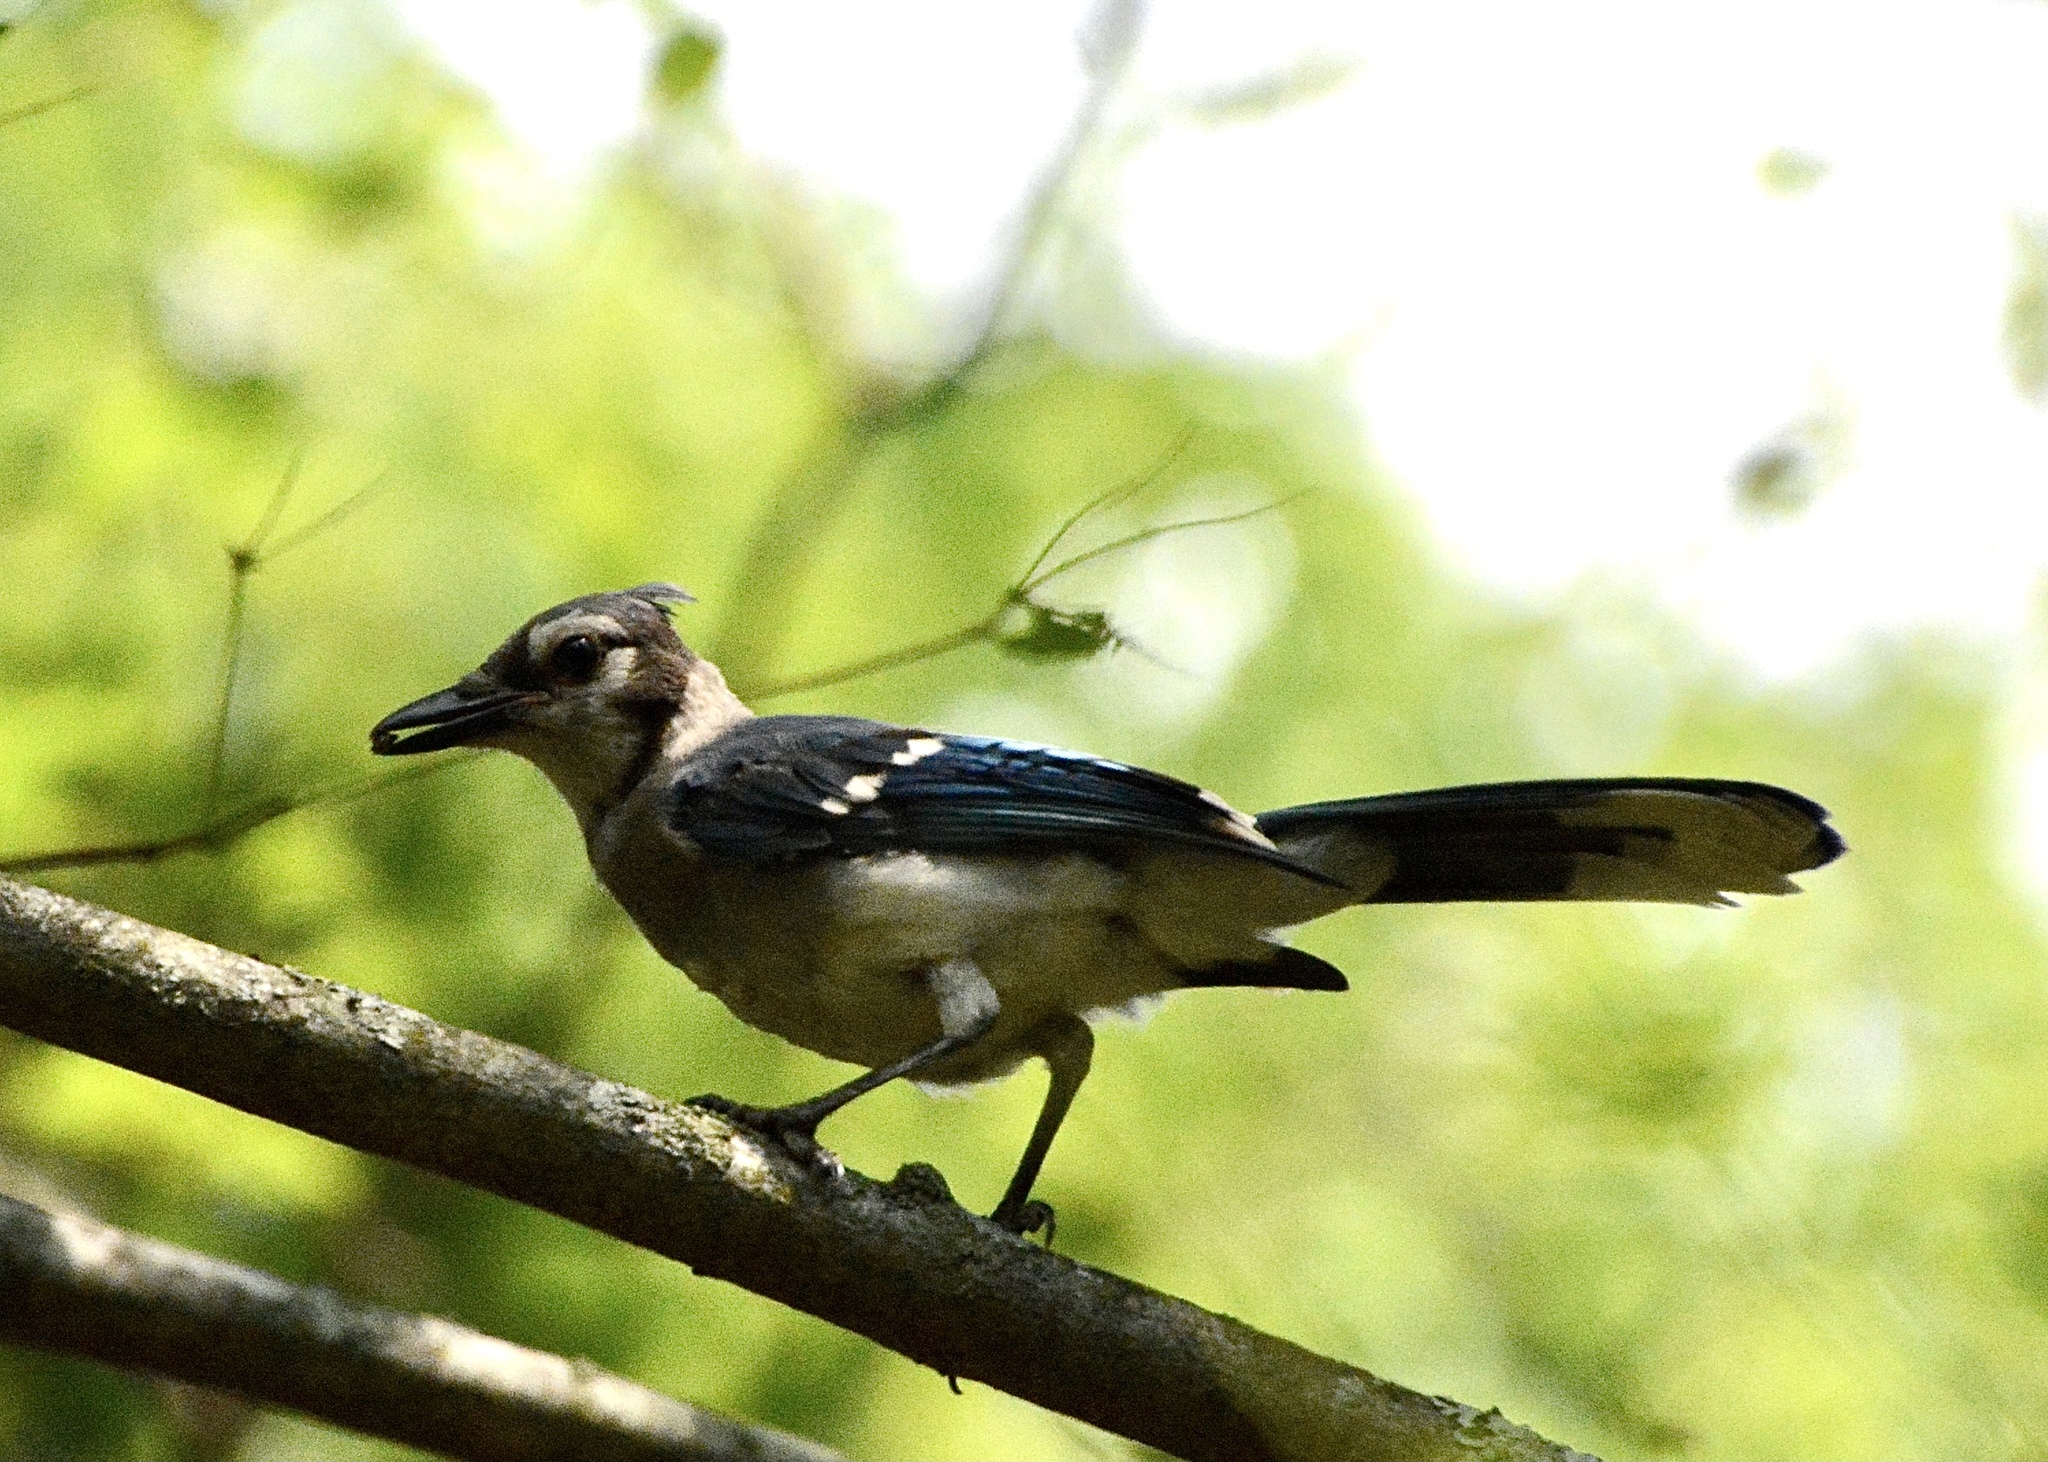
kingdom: Animalia
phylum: Chordata
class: Aves
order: Passeriformes
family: Corvidae
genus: Cyanocitta
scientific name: Cyanocitta cristata
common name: Blue jay
